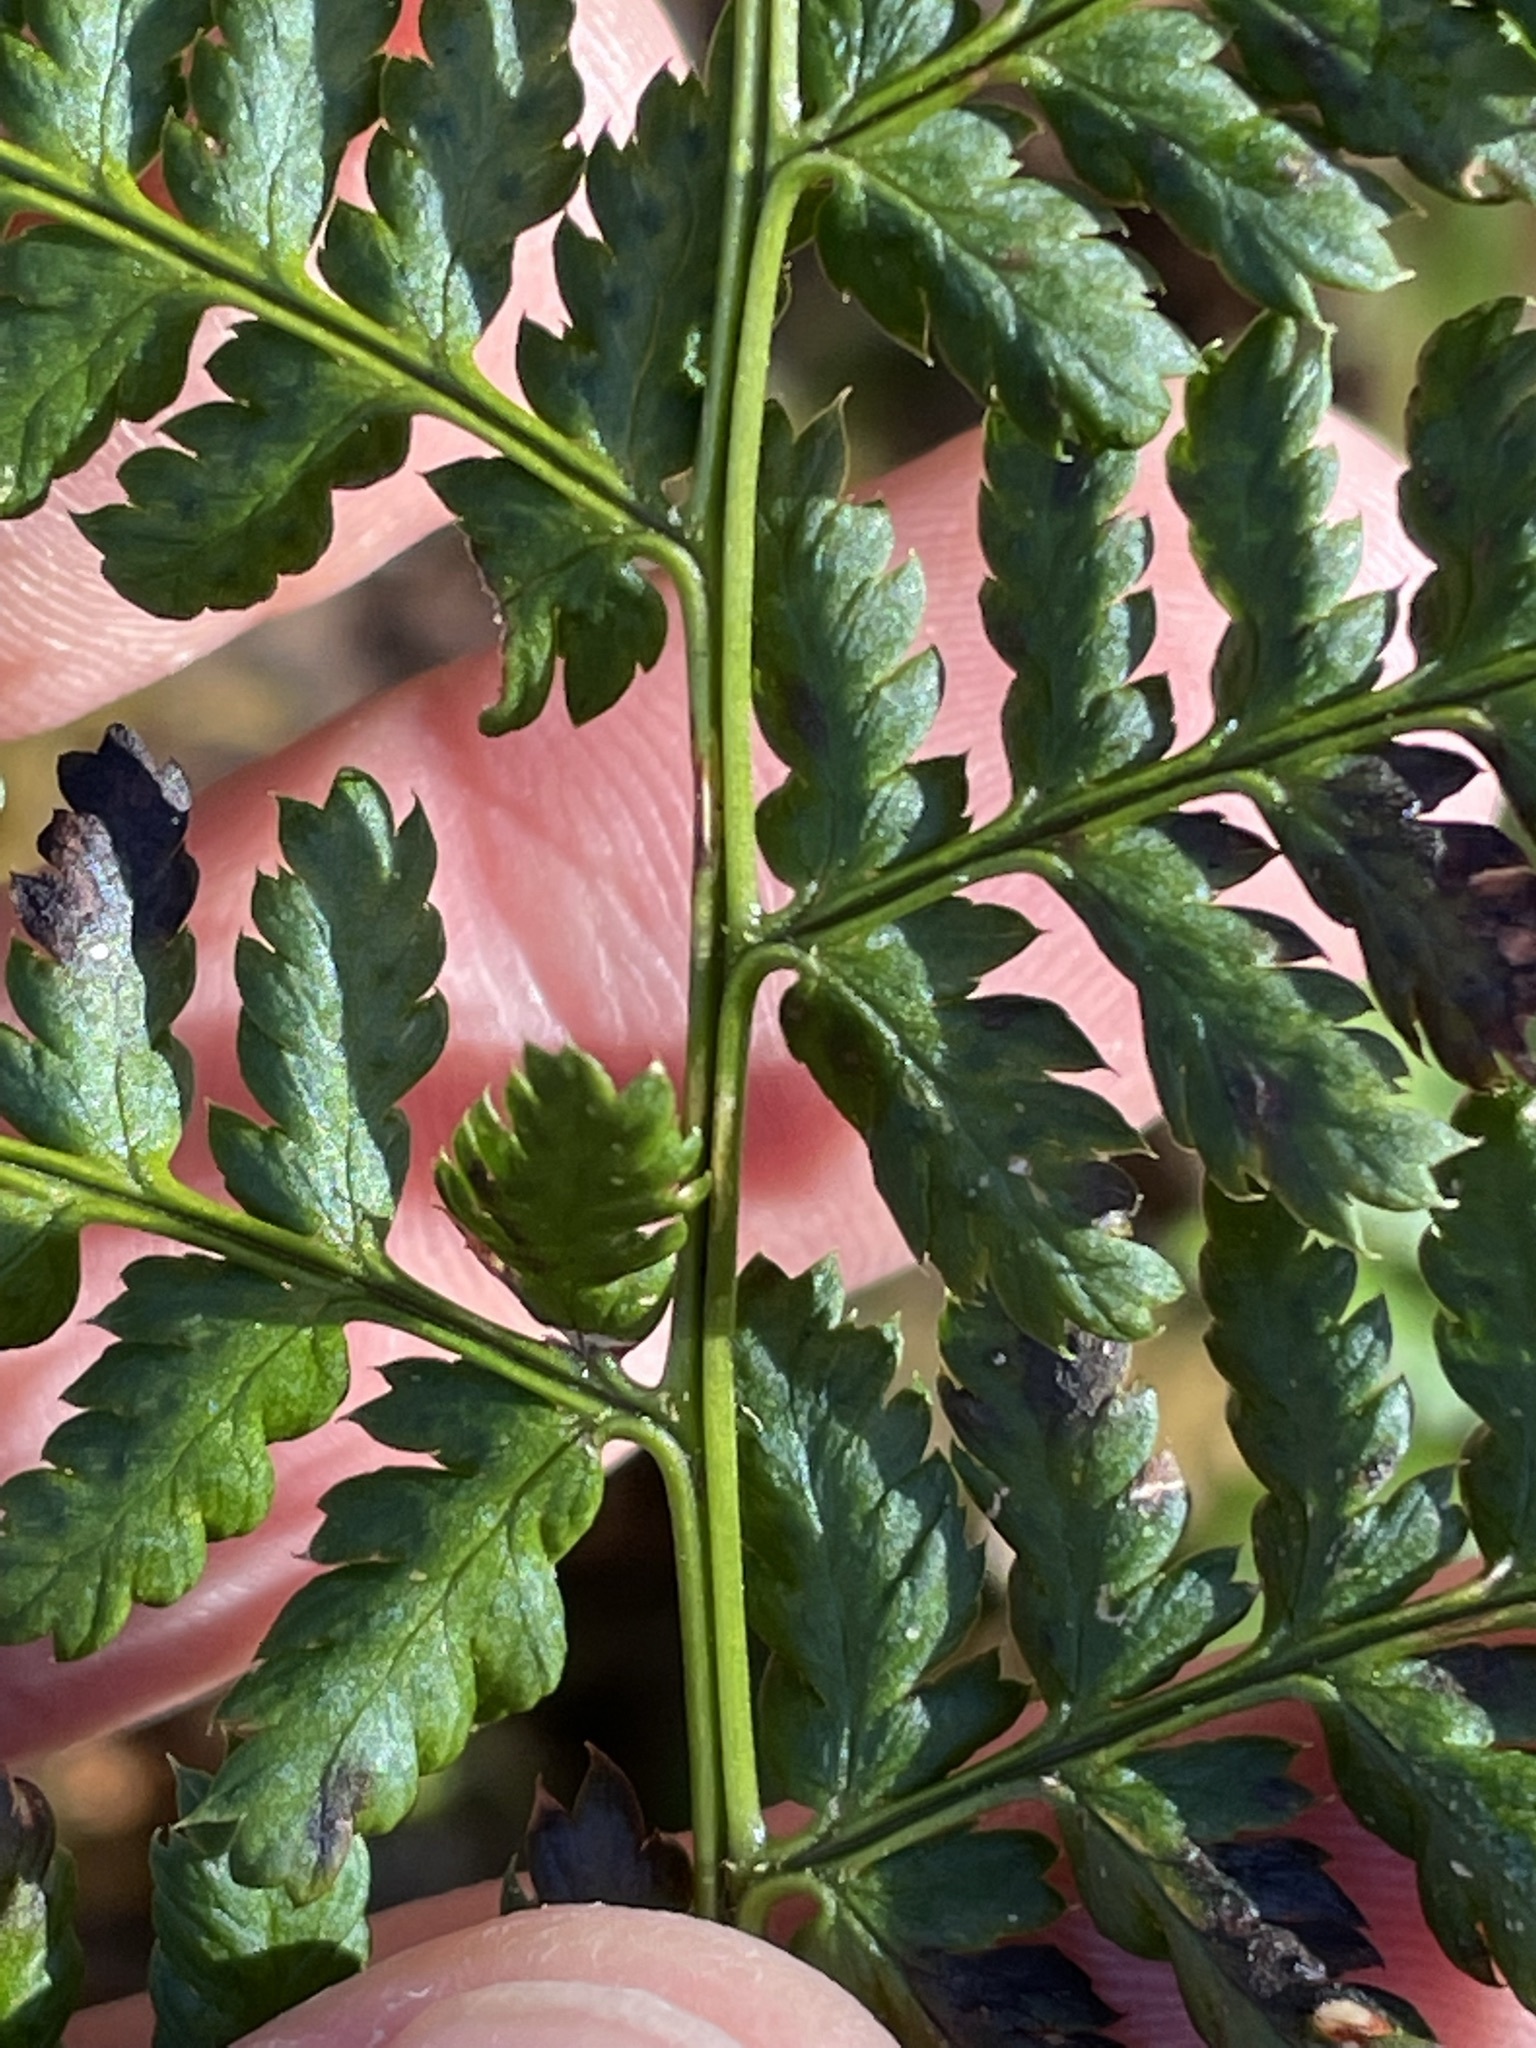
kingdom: Plantae
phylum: Tracheophyta
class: Polypodiopsida
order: Polypodiales
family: Dryopteridaceae
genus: Dryopteris
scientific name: Dryopteris dilatata
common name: Broad buckler-fern
